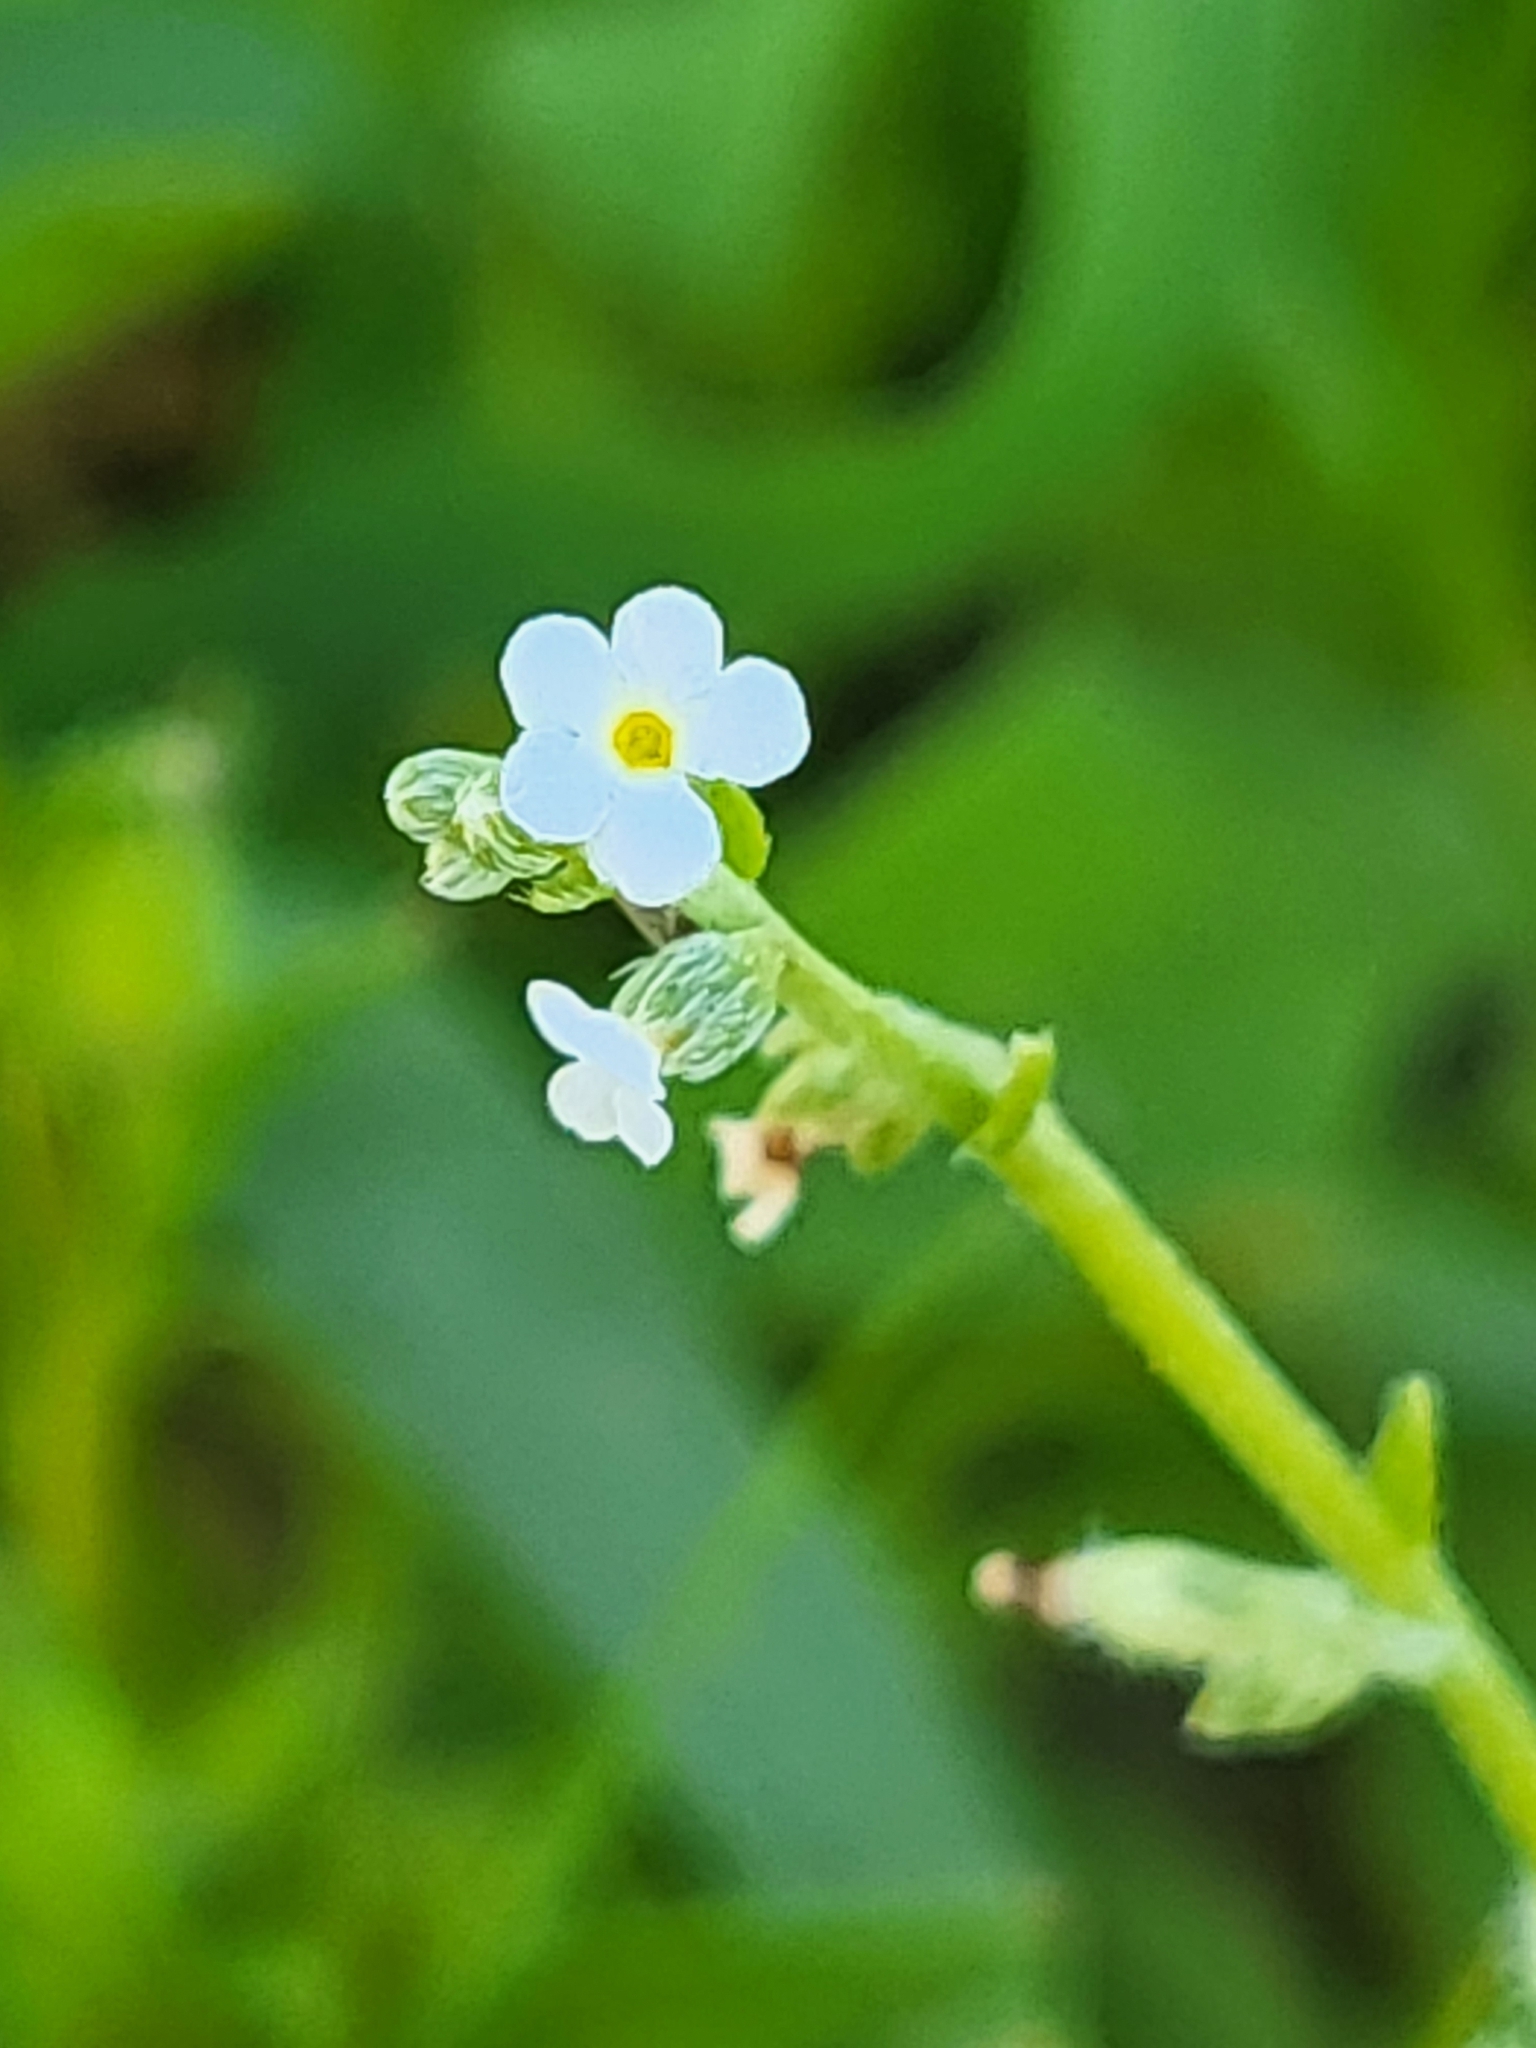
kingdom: Plantae
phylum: Tracheophyta
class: Magnoliopsida
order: Boraginales
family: Boraginaceae
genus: Pectocarya
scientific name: Pectocarya linearis
